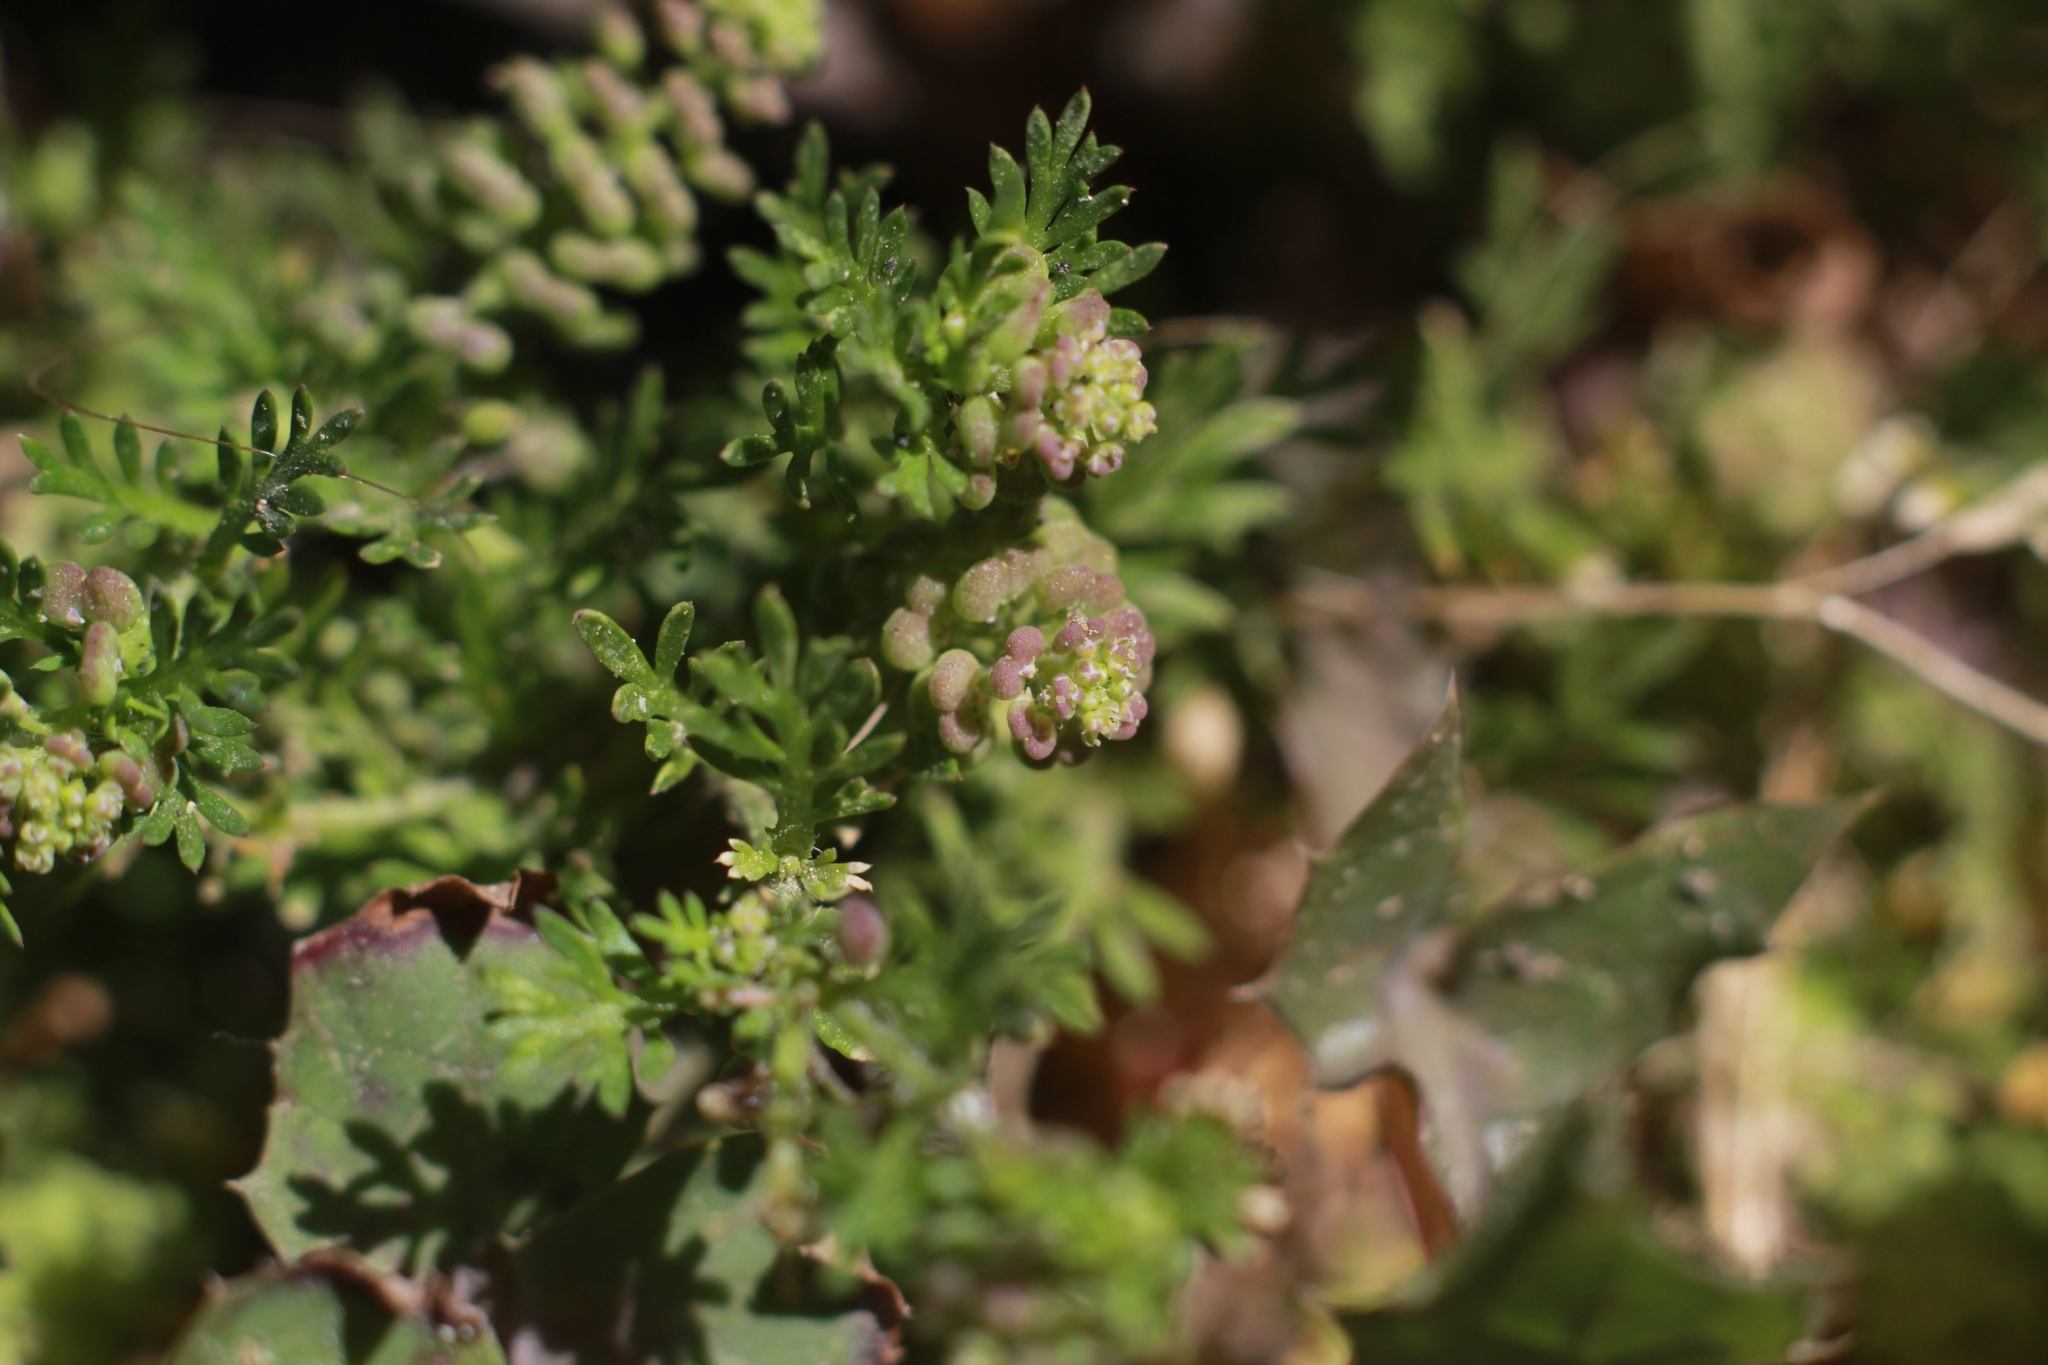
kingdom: Plantae
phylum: Tracheophyta
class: Magnoliopsida
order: Brassicales
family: Brassicaceae
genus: Lepidium
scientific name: Lepidium didymum
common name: Lesser swinecress
